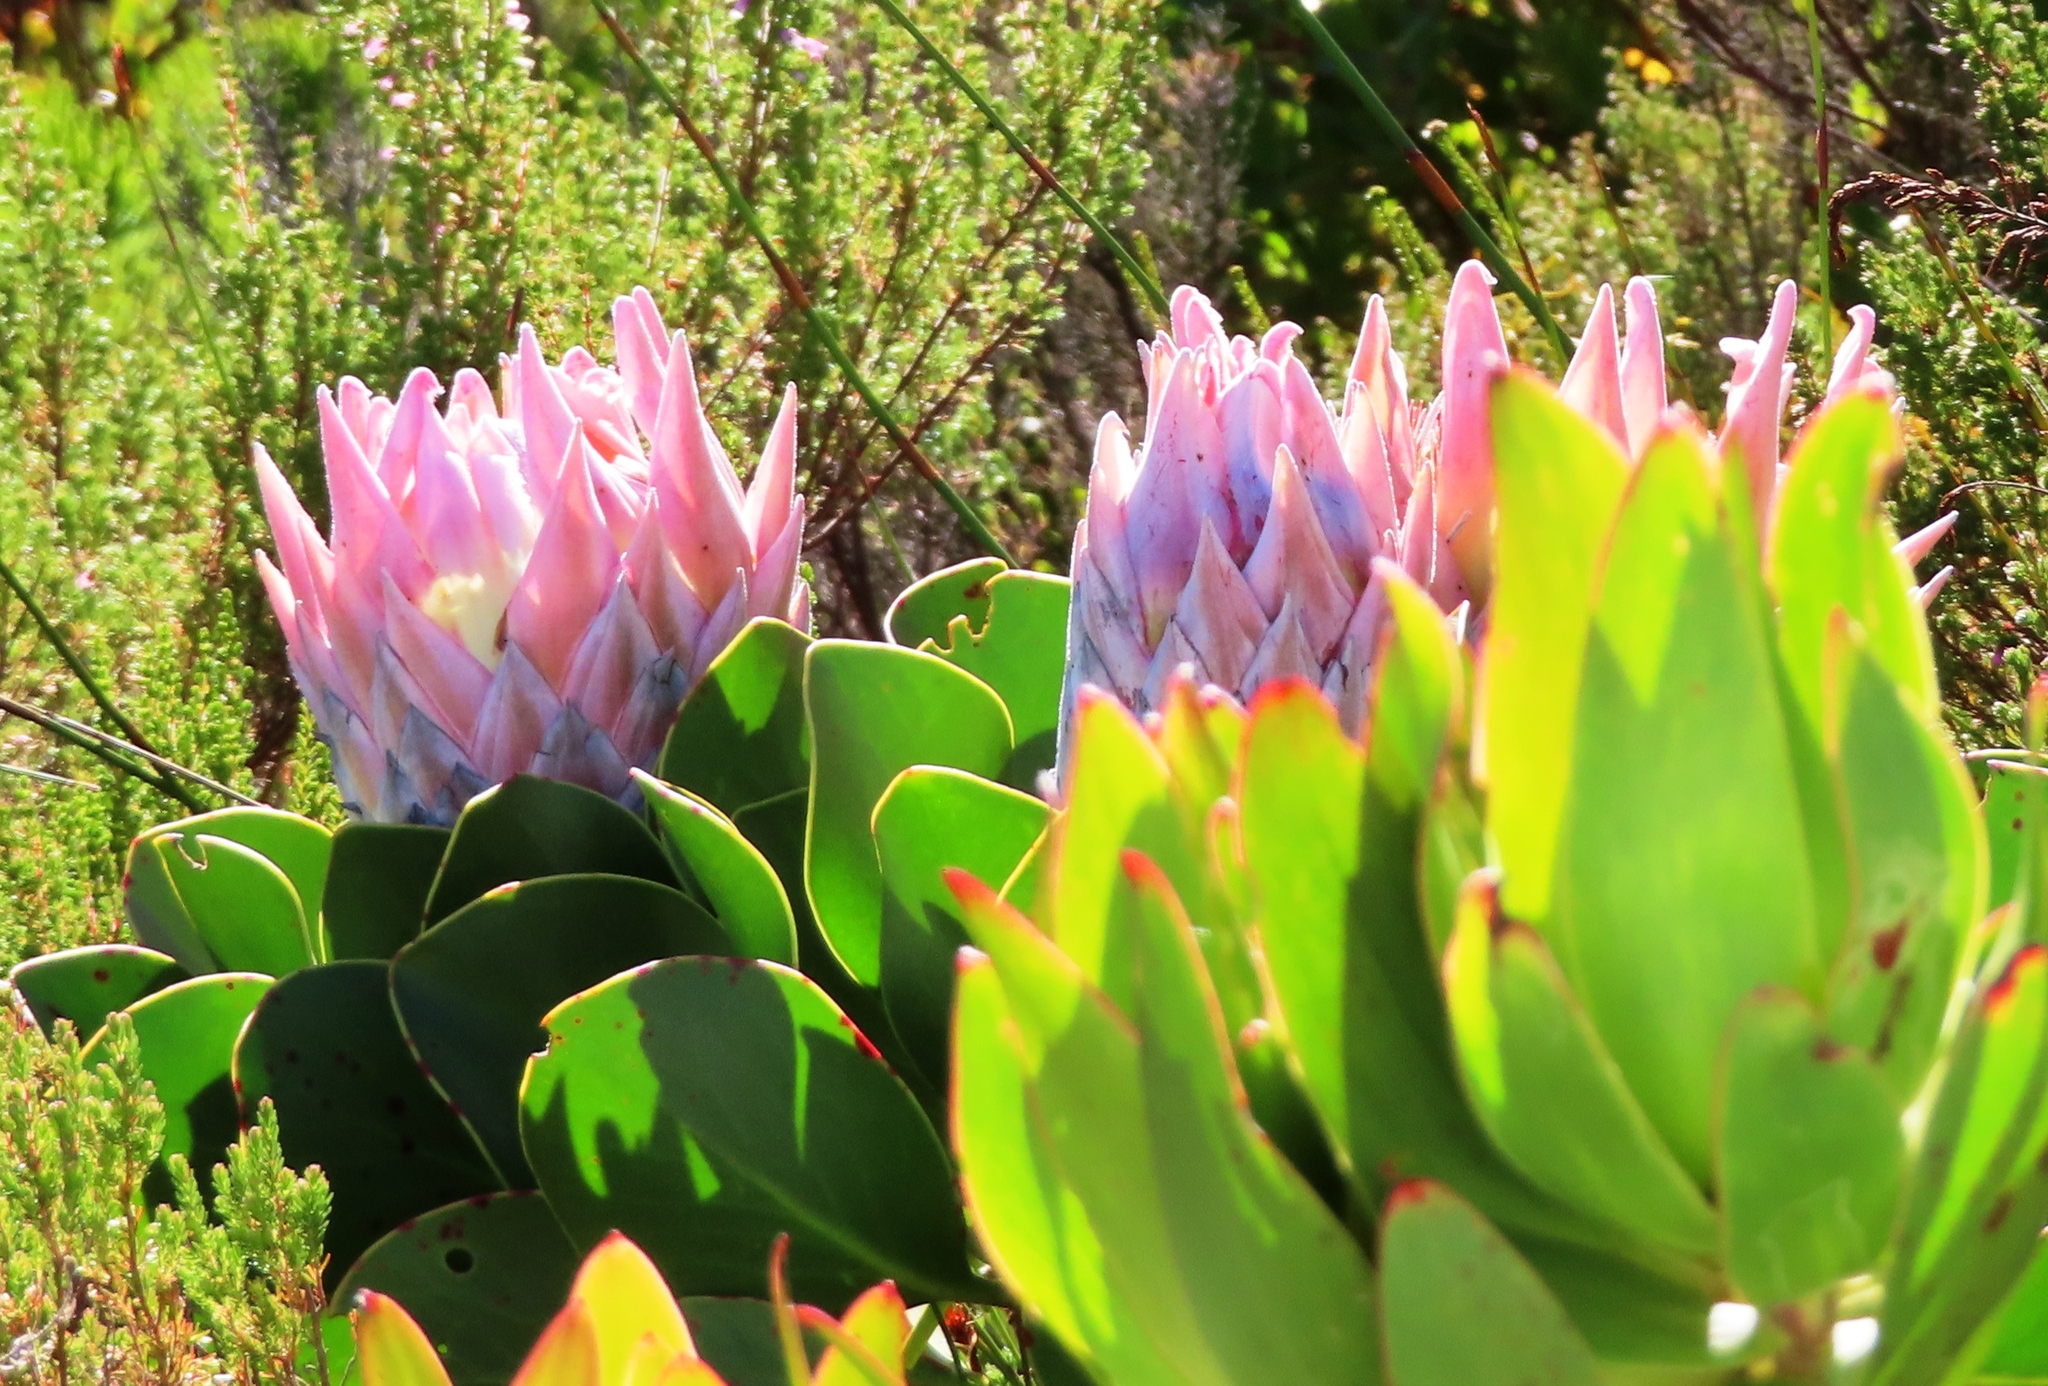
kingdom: Plantae
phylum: Tracheophyta
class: Magnoliopsida
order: Proteales
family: Proteaceae
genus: Protea
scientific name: Protea cynaroides
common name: King protea
